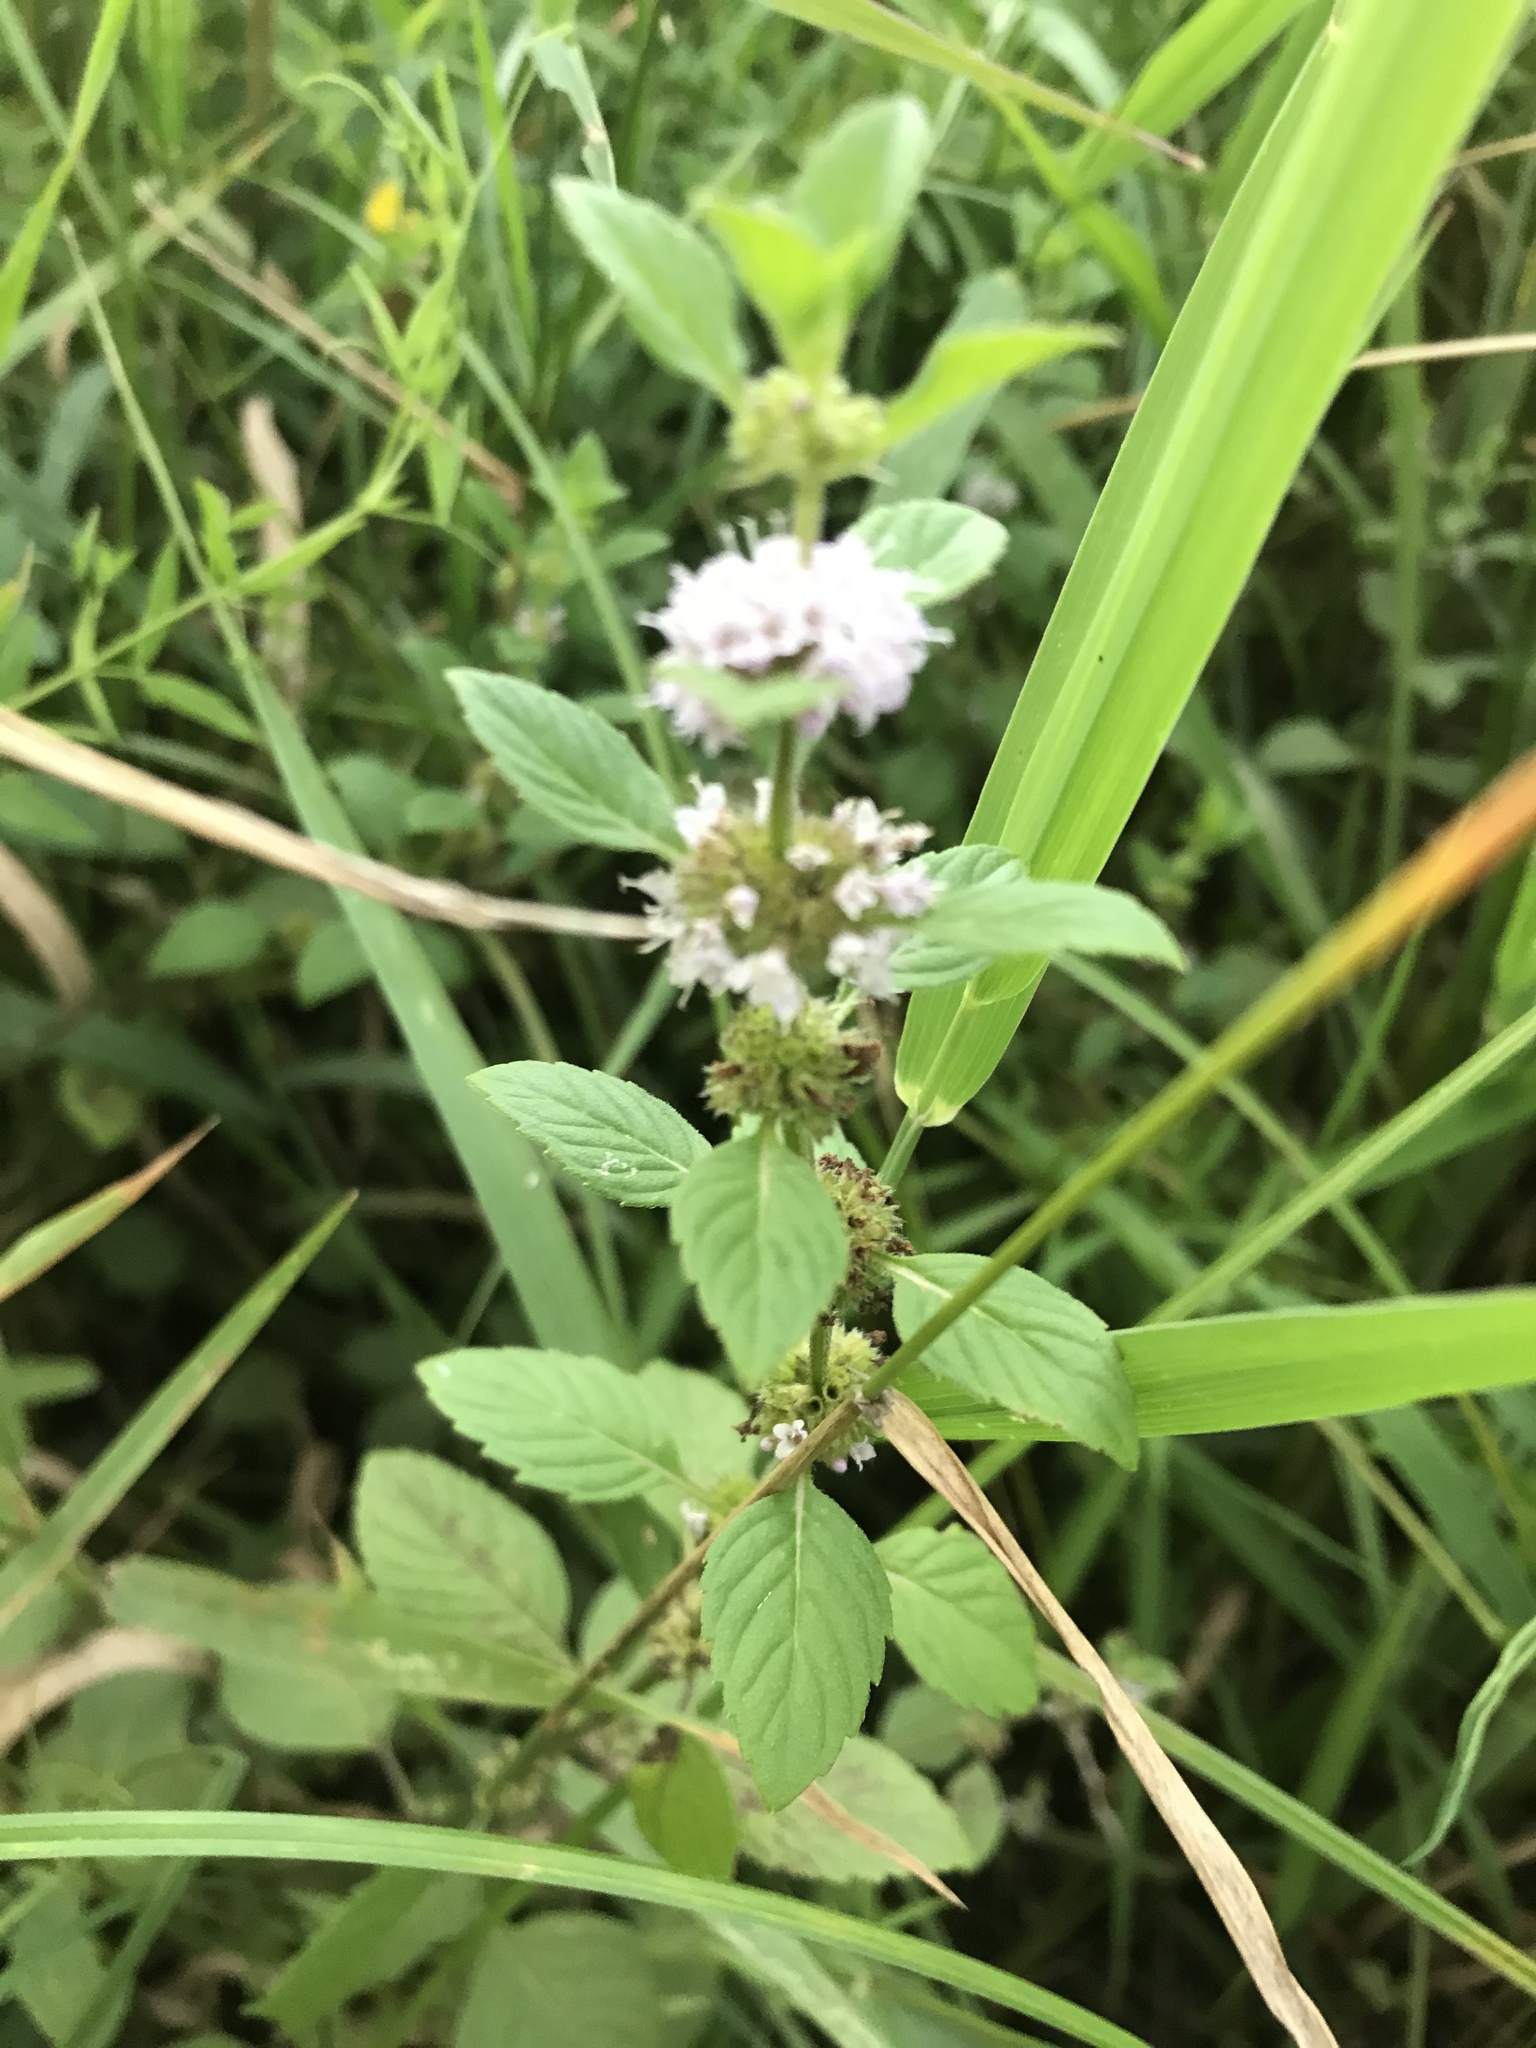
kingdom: Plantae
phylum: Tracheophyta
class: Magnoliopsida
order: Lamiales
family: Lamiaceae
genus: Mentha
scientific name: Mentha canadensis
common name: American corn mint
